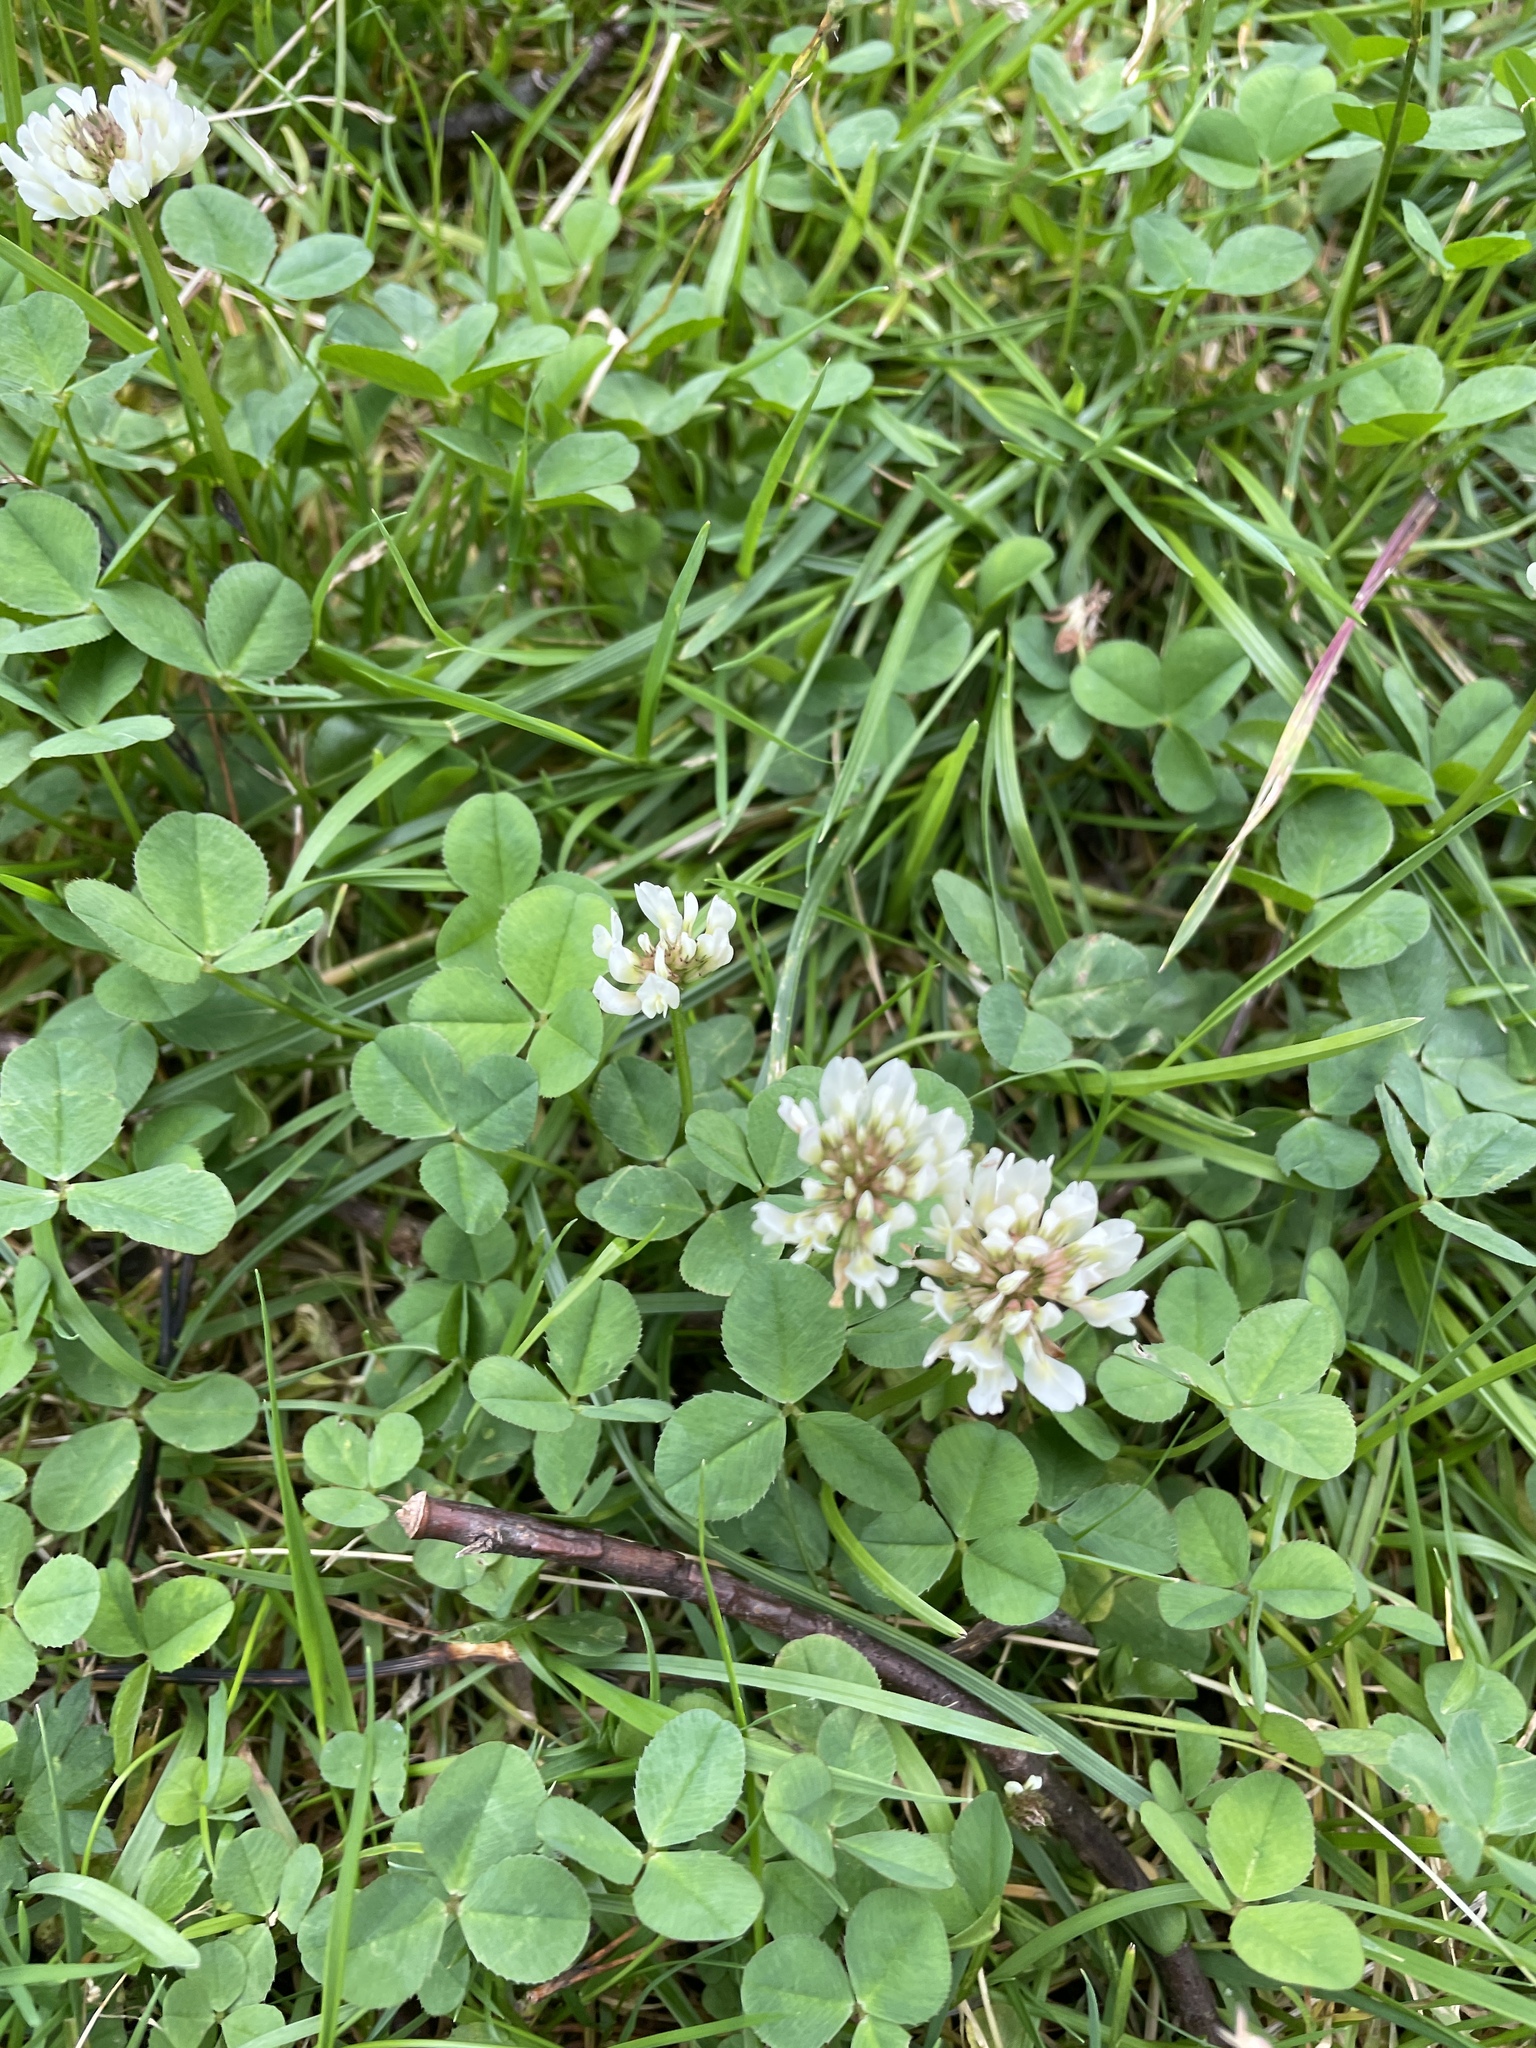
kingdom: Plantae
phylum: Tracheophyta
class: Magnoliopsida
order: Fabales
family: Fabaceae
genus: Trifolium
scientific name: Trifolium repens
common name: White clover
